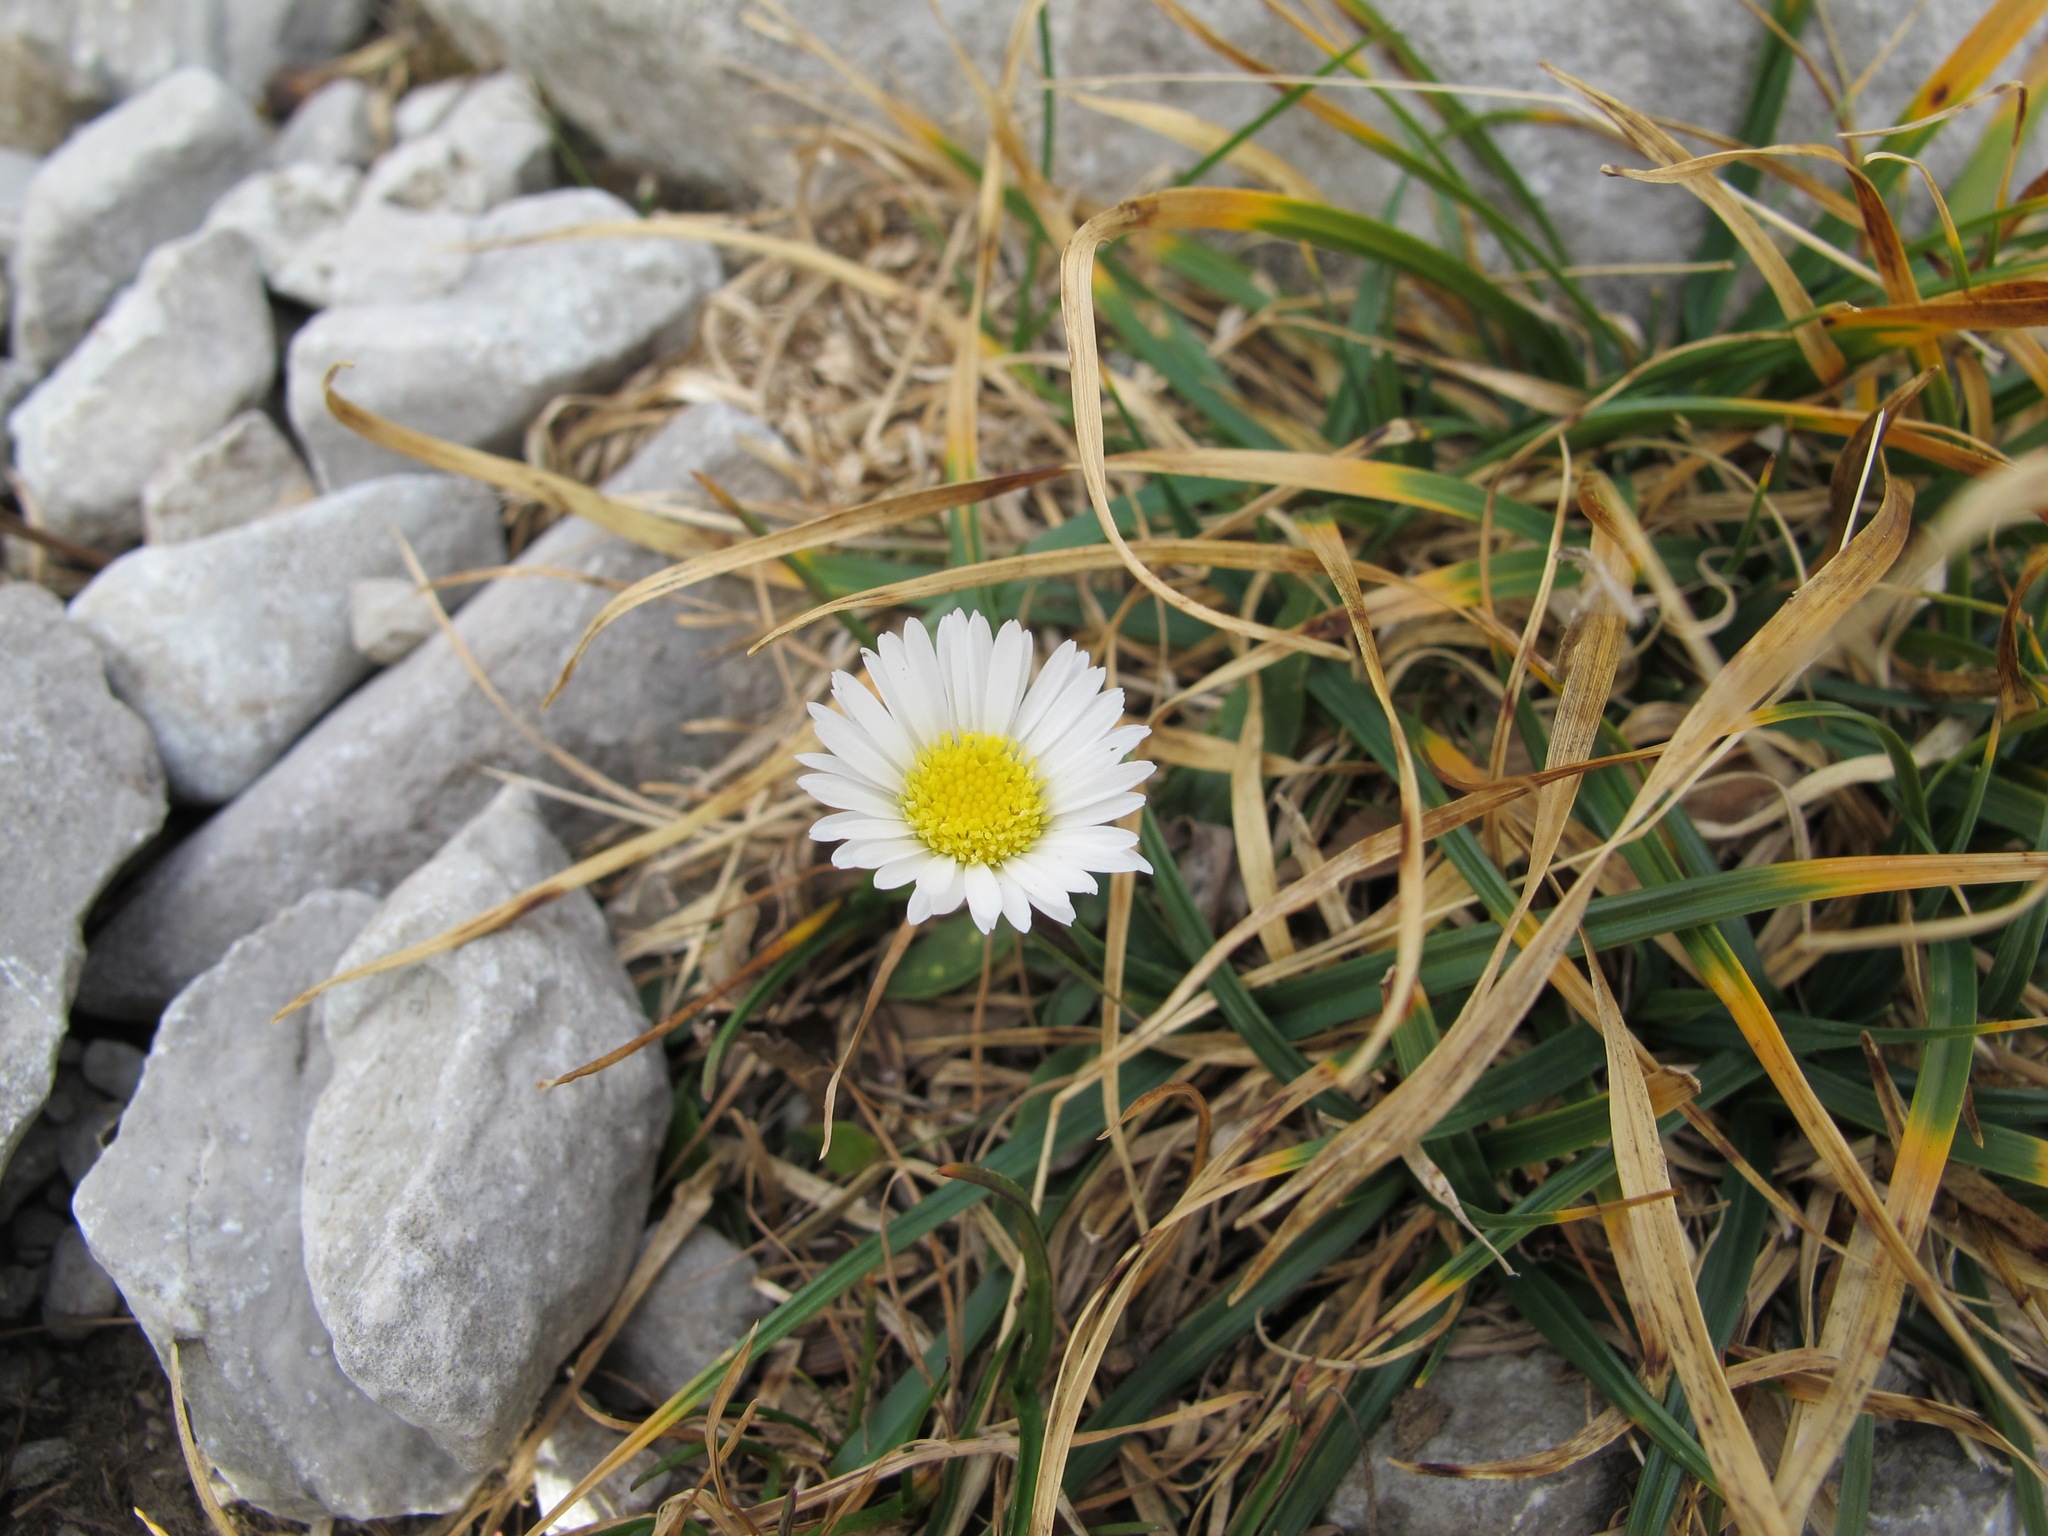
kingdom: Plantae
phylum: Tracheophyta
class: Magnoliopsida
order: Asterales
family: Asteraceae
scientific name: Asteraceae
